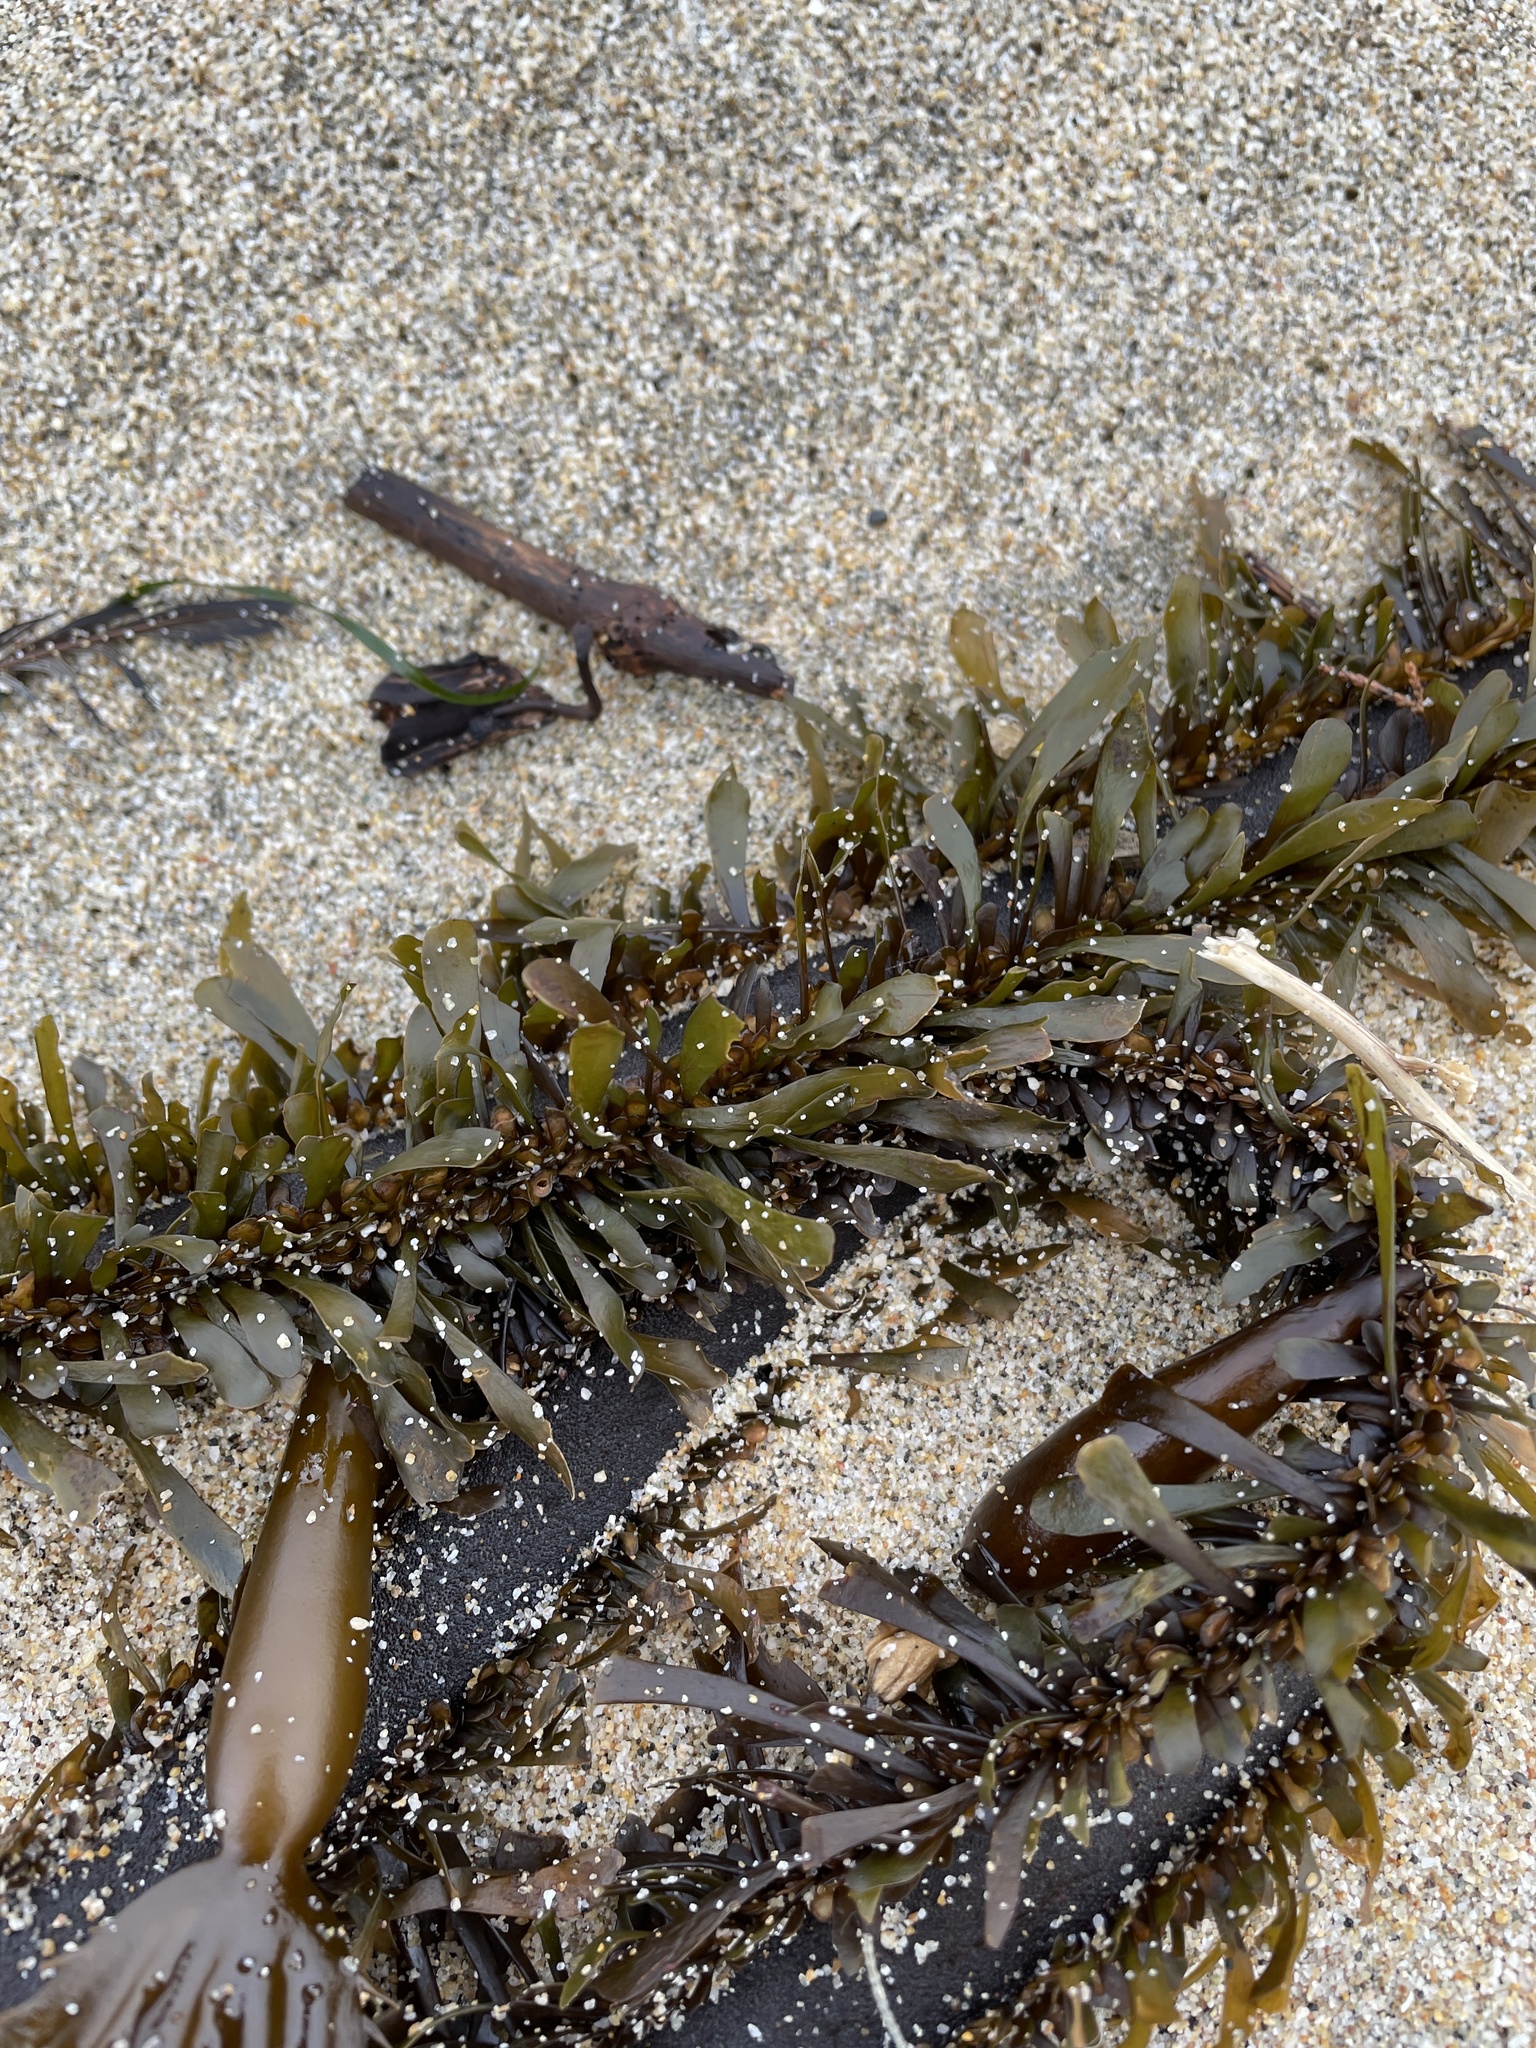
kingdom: Chromista
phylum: Ochrophyta
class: Phaeophyceae
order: Laminariales
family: Lessoniaceae
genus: Egregia
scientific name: Egregia menziesii
